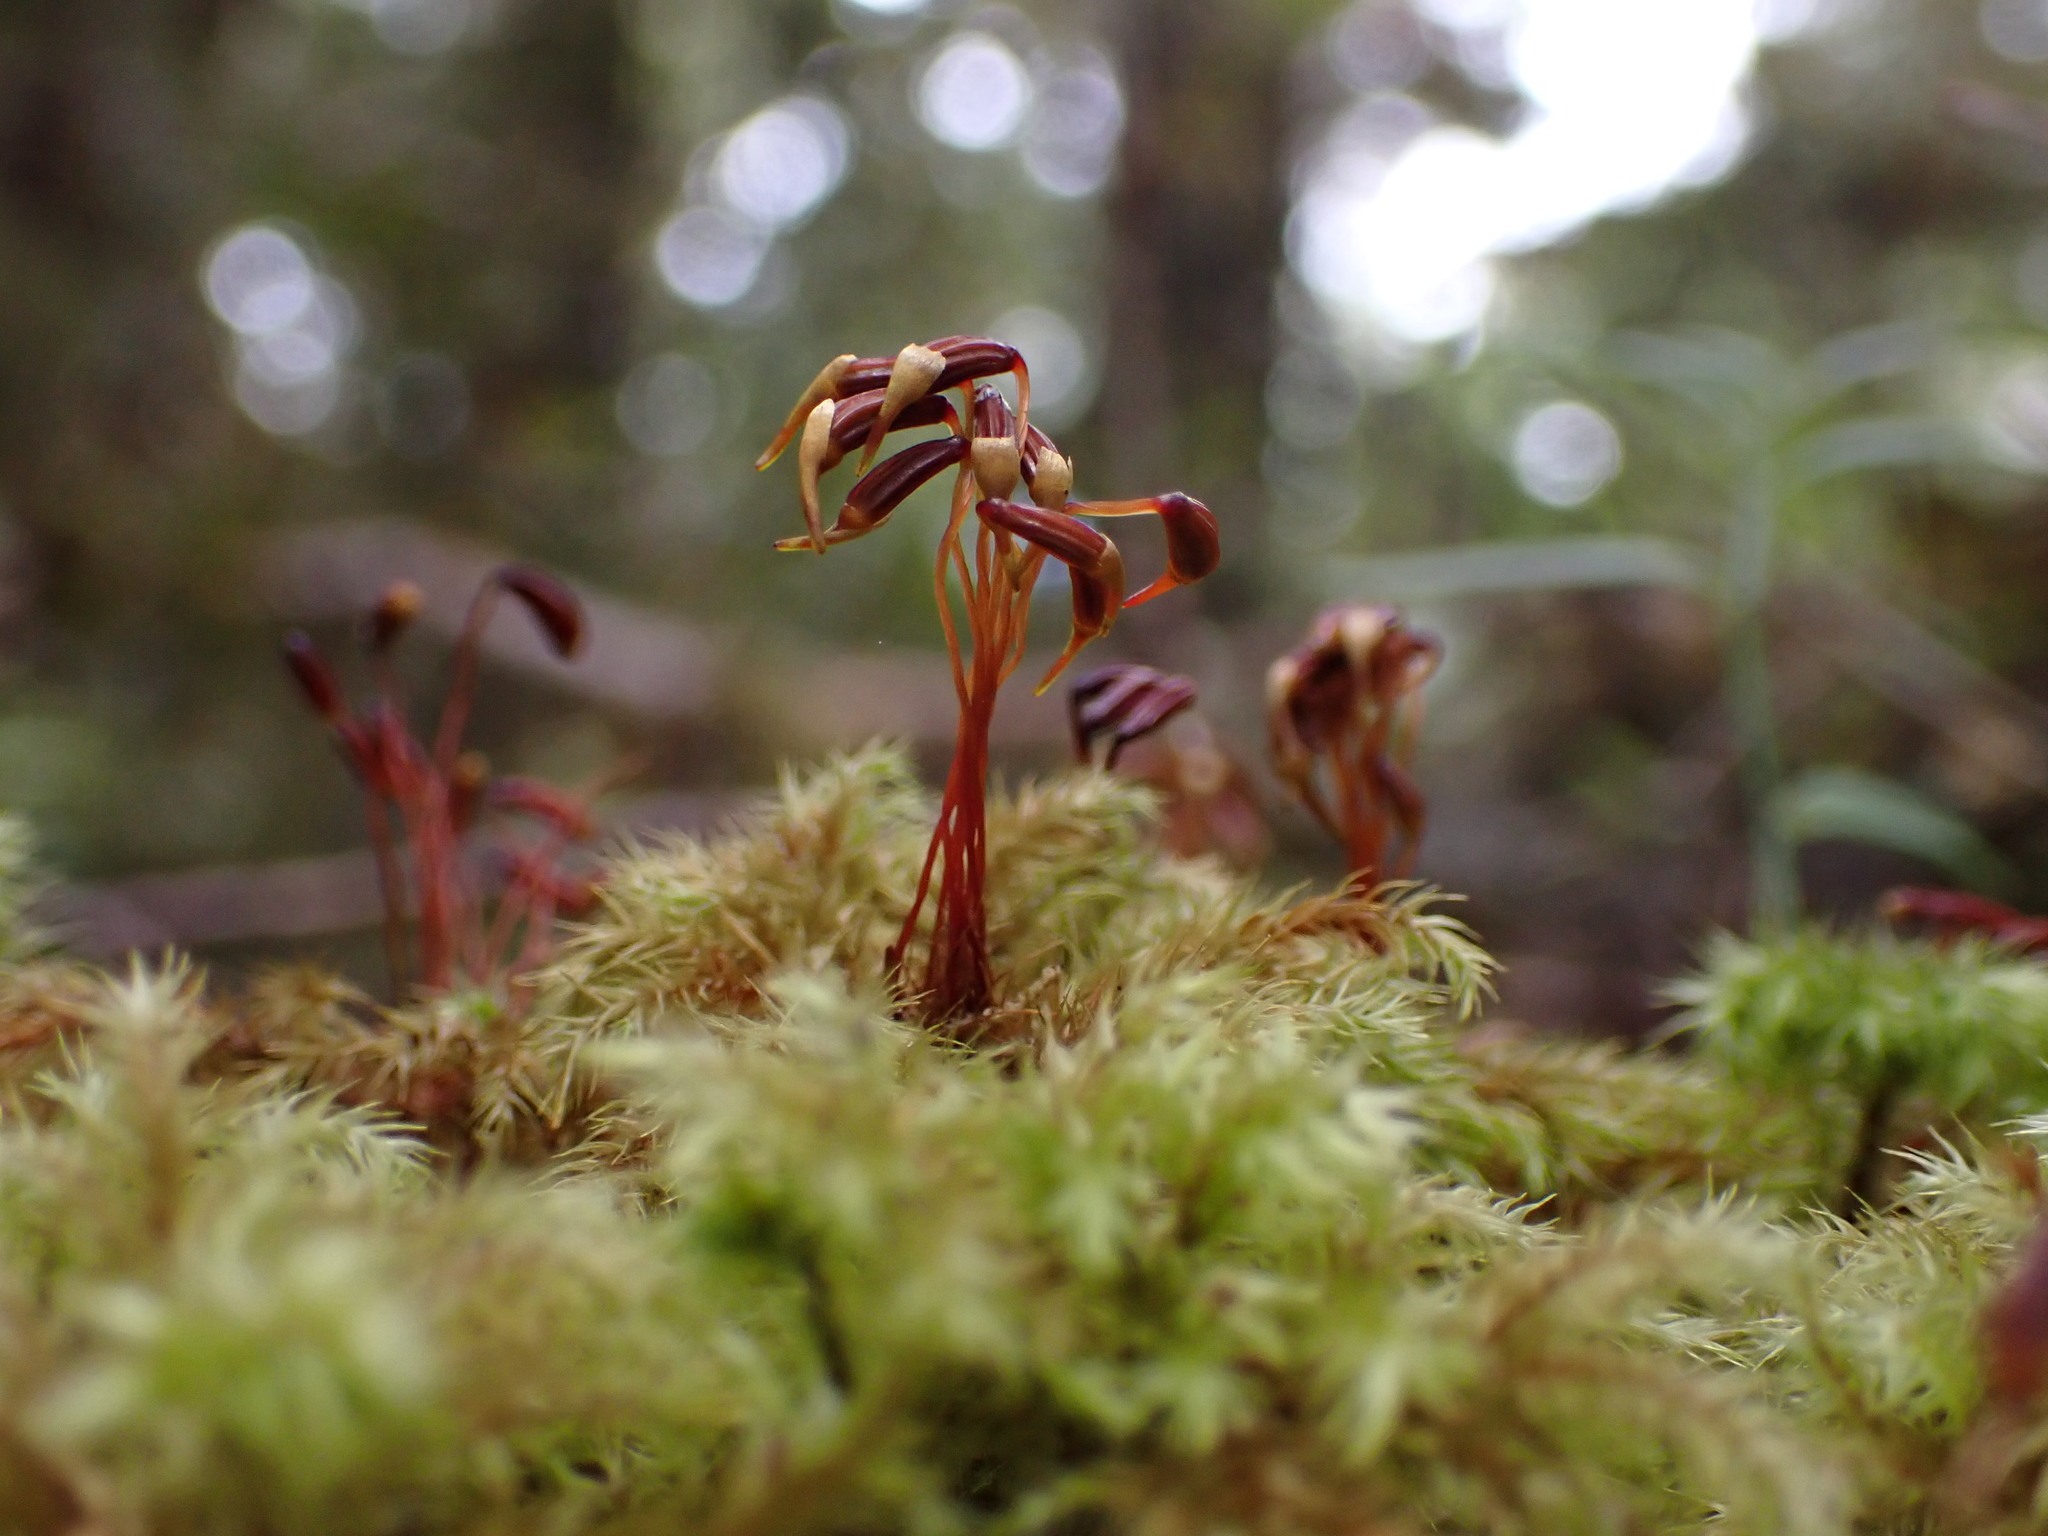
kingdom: Plantae
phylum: Bryophyta
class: Bryopsida
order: Hypnodendrales
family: Spiridentaceae
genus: Mniodendron
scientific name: Mniodendron comatum
